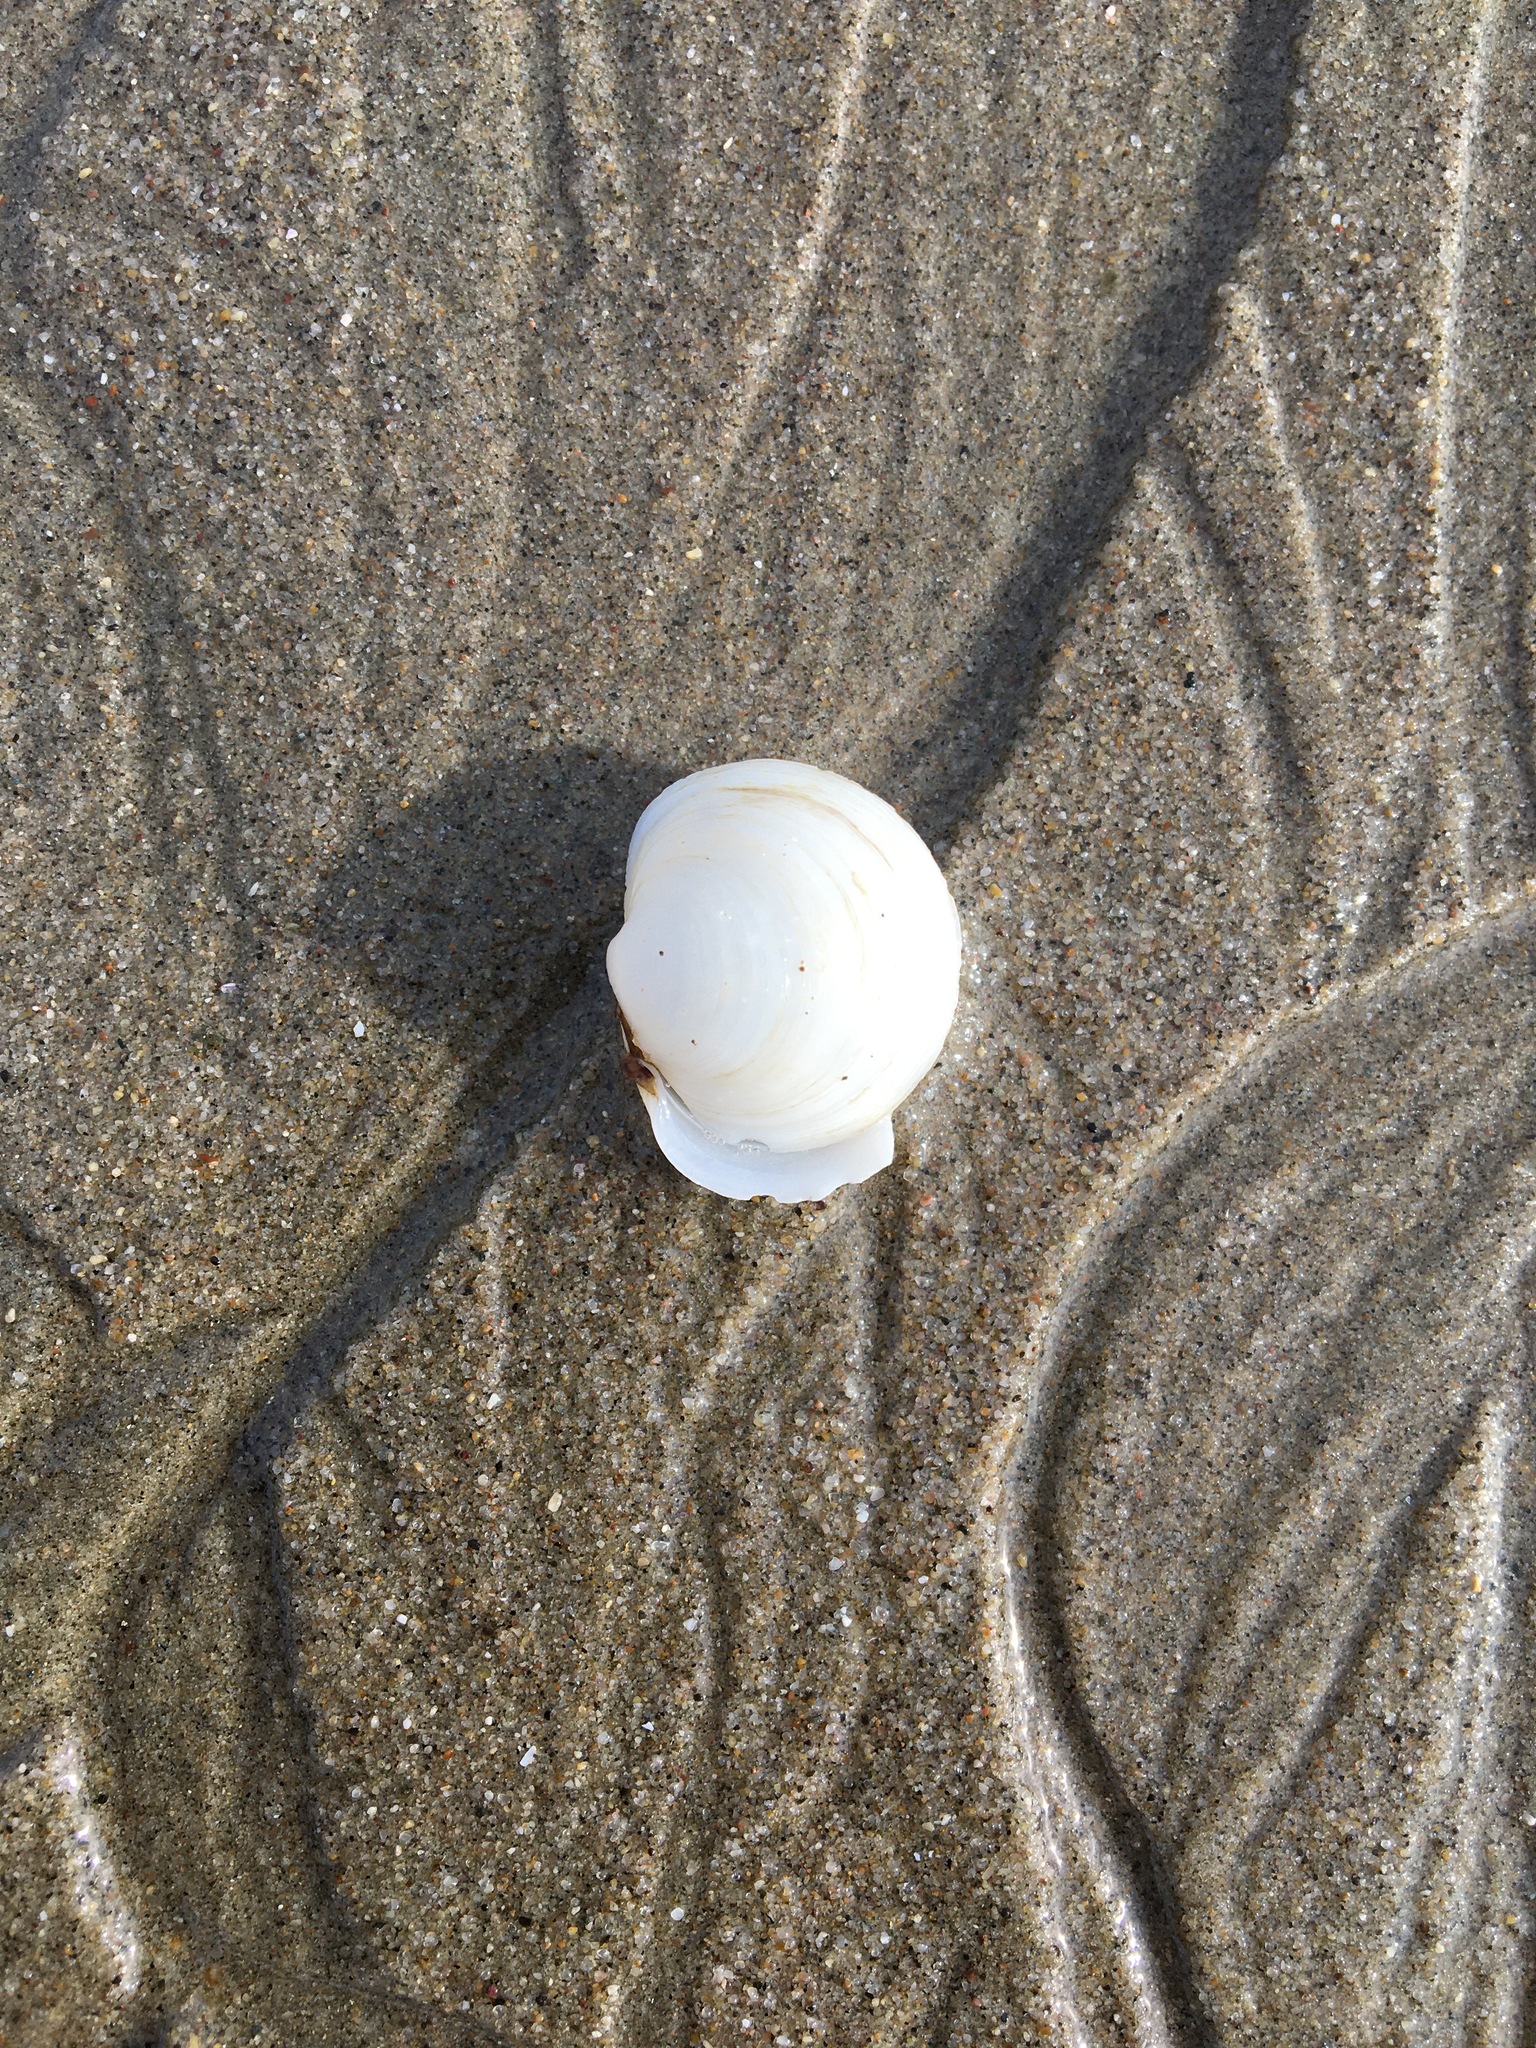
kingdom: Animalia
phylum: Mollusca
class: Bivalvia
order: Venerida
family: Ungulinidae
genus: Zemysina
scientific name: Zemysina orbella
